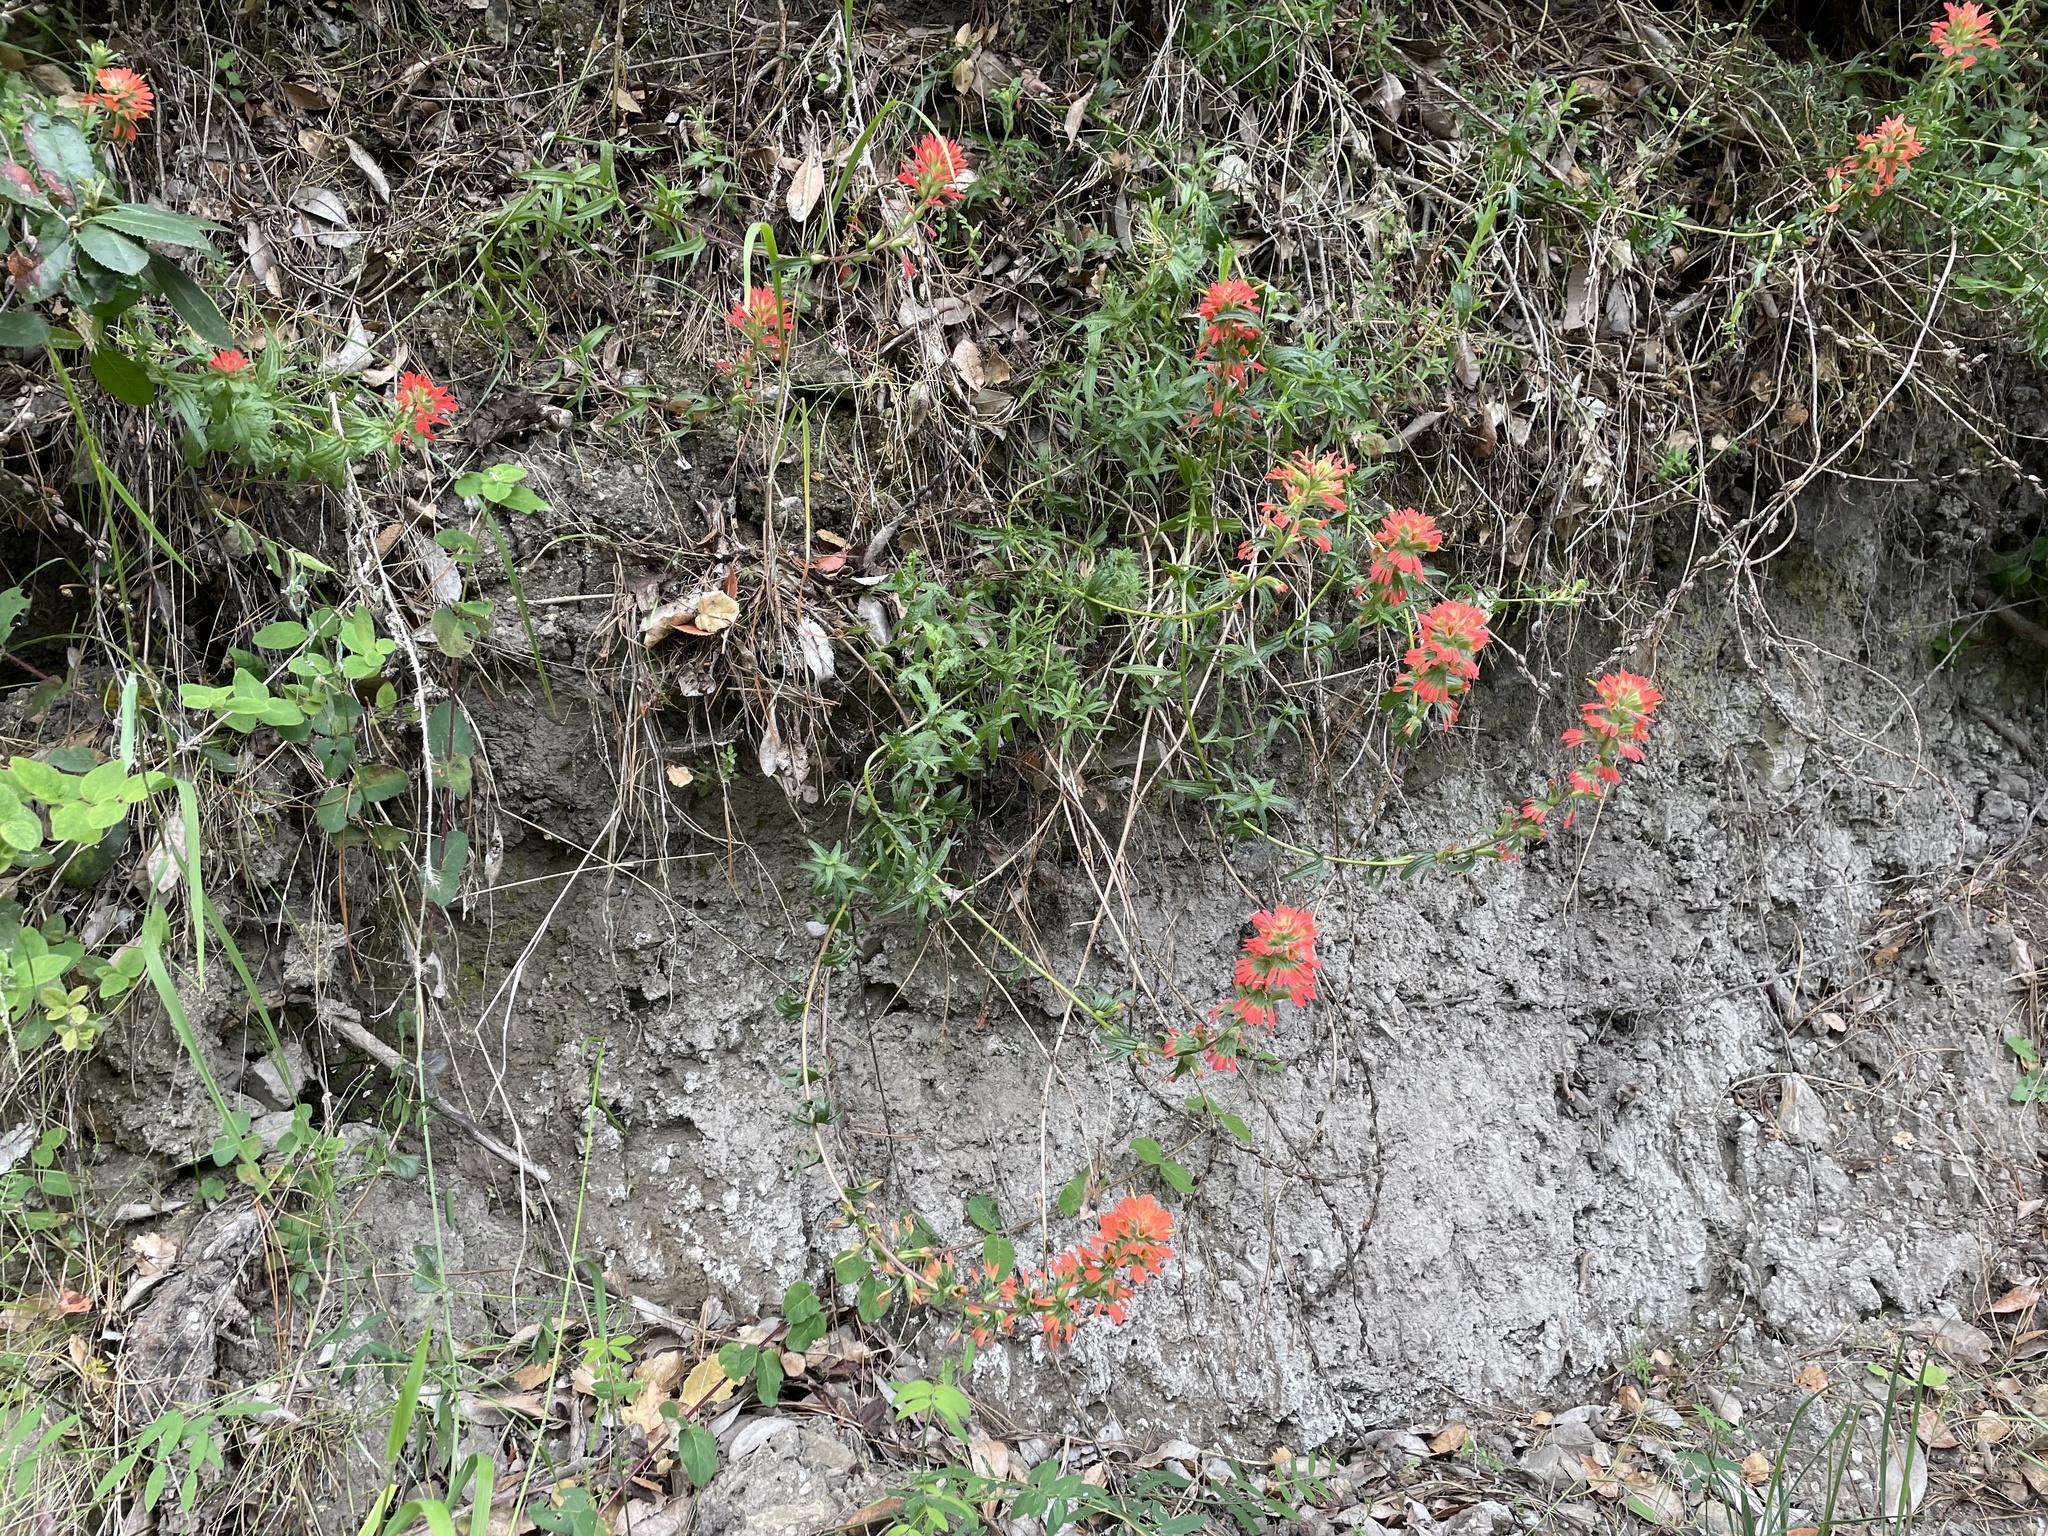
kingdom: Plantae
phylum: Tracheophyta
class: Magnoliopsida
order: Lamiales
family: Orobanchaceae
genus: Castilleja
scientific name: Castilleja affinis
